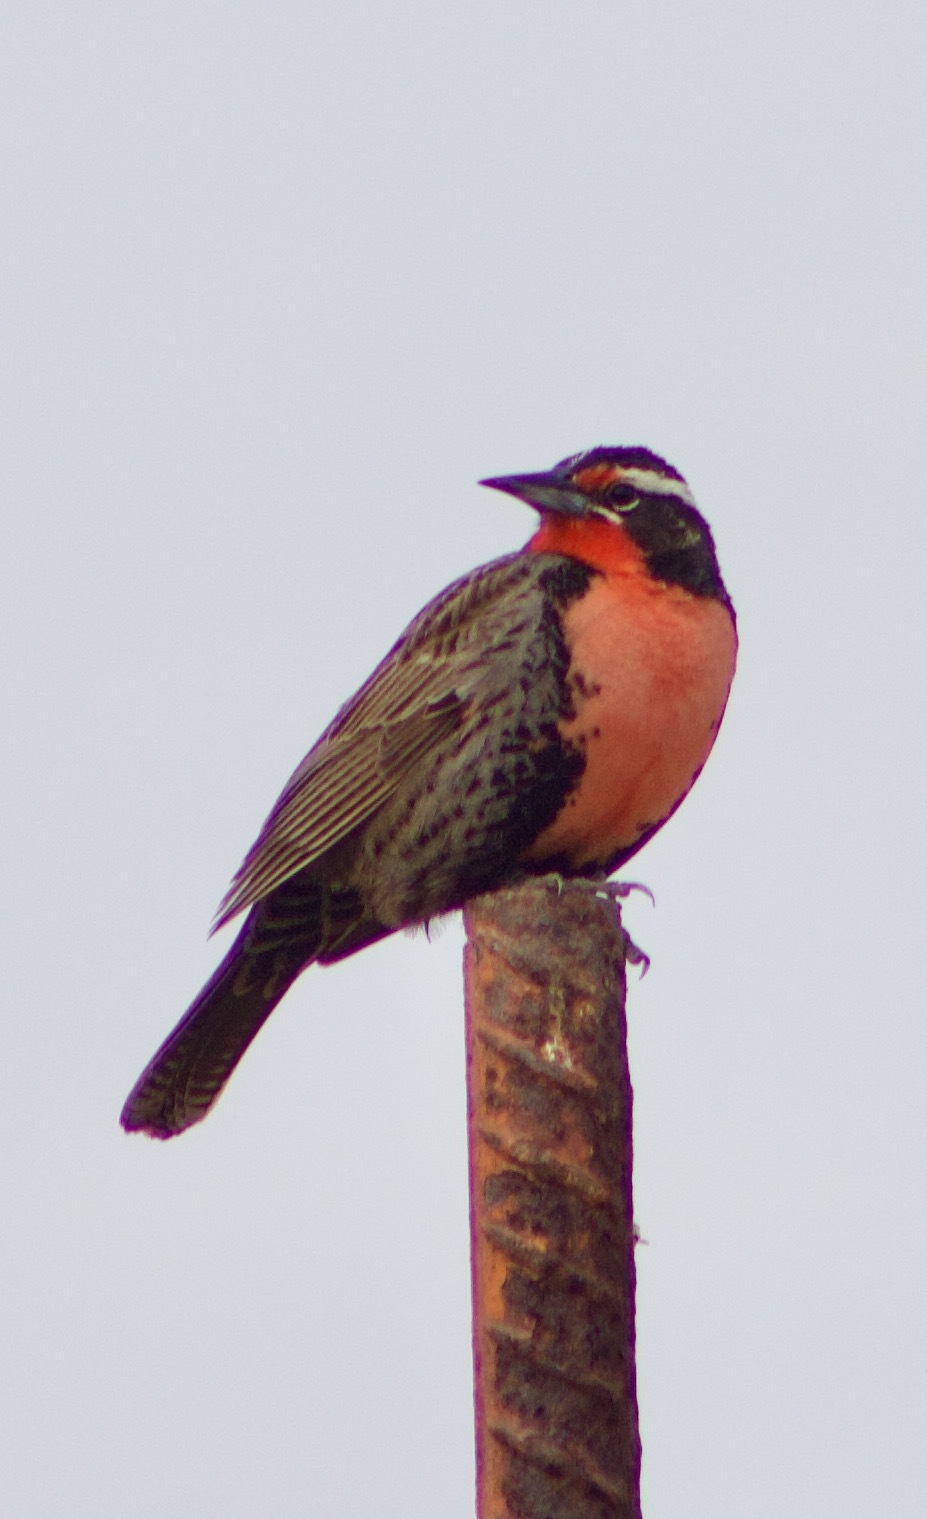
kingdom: Animalia
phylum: Chordata
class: Aves
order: Passeriformes
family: Icteridae
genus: Sturnella
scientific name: Sturnella loyca
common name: Long-tailed meadowlark
